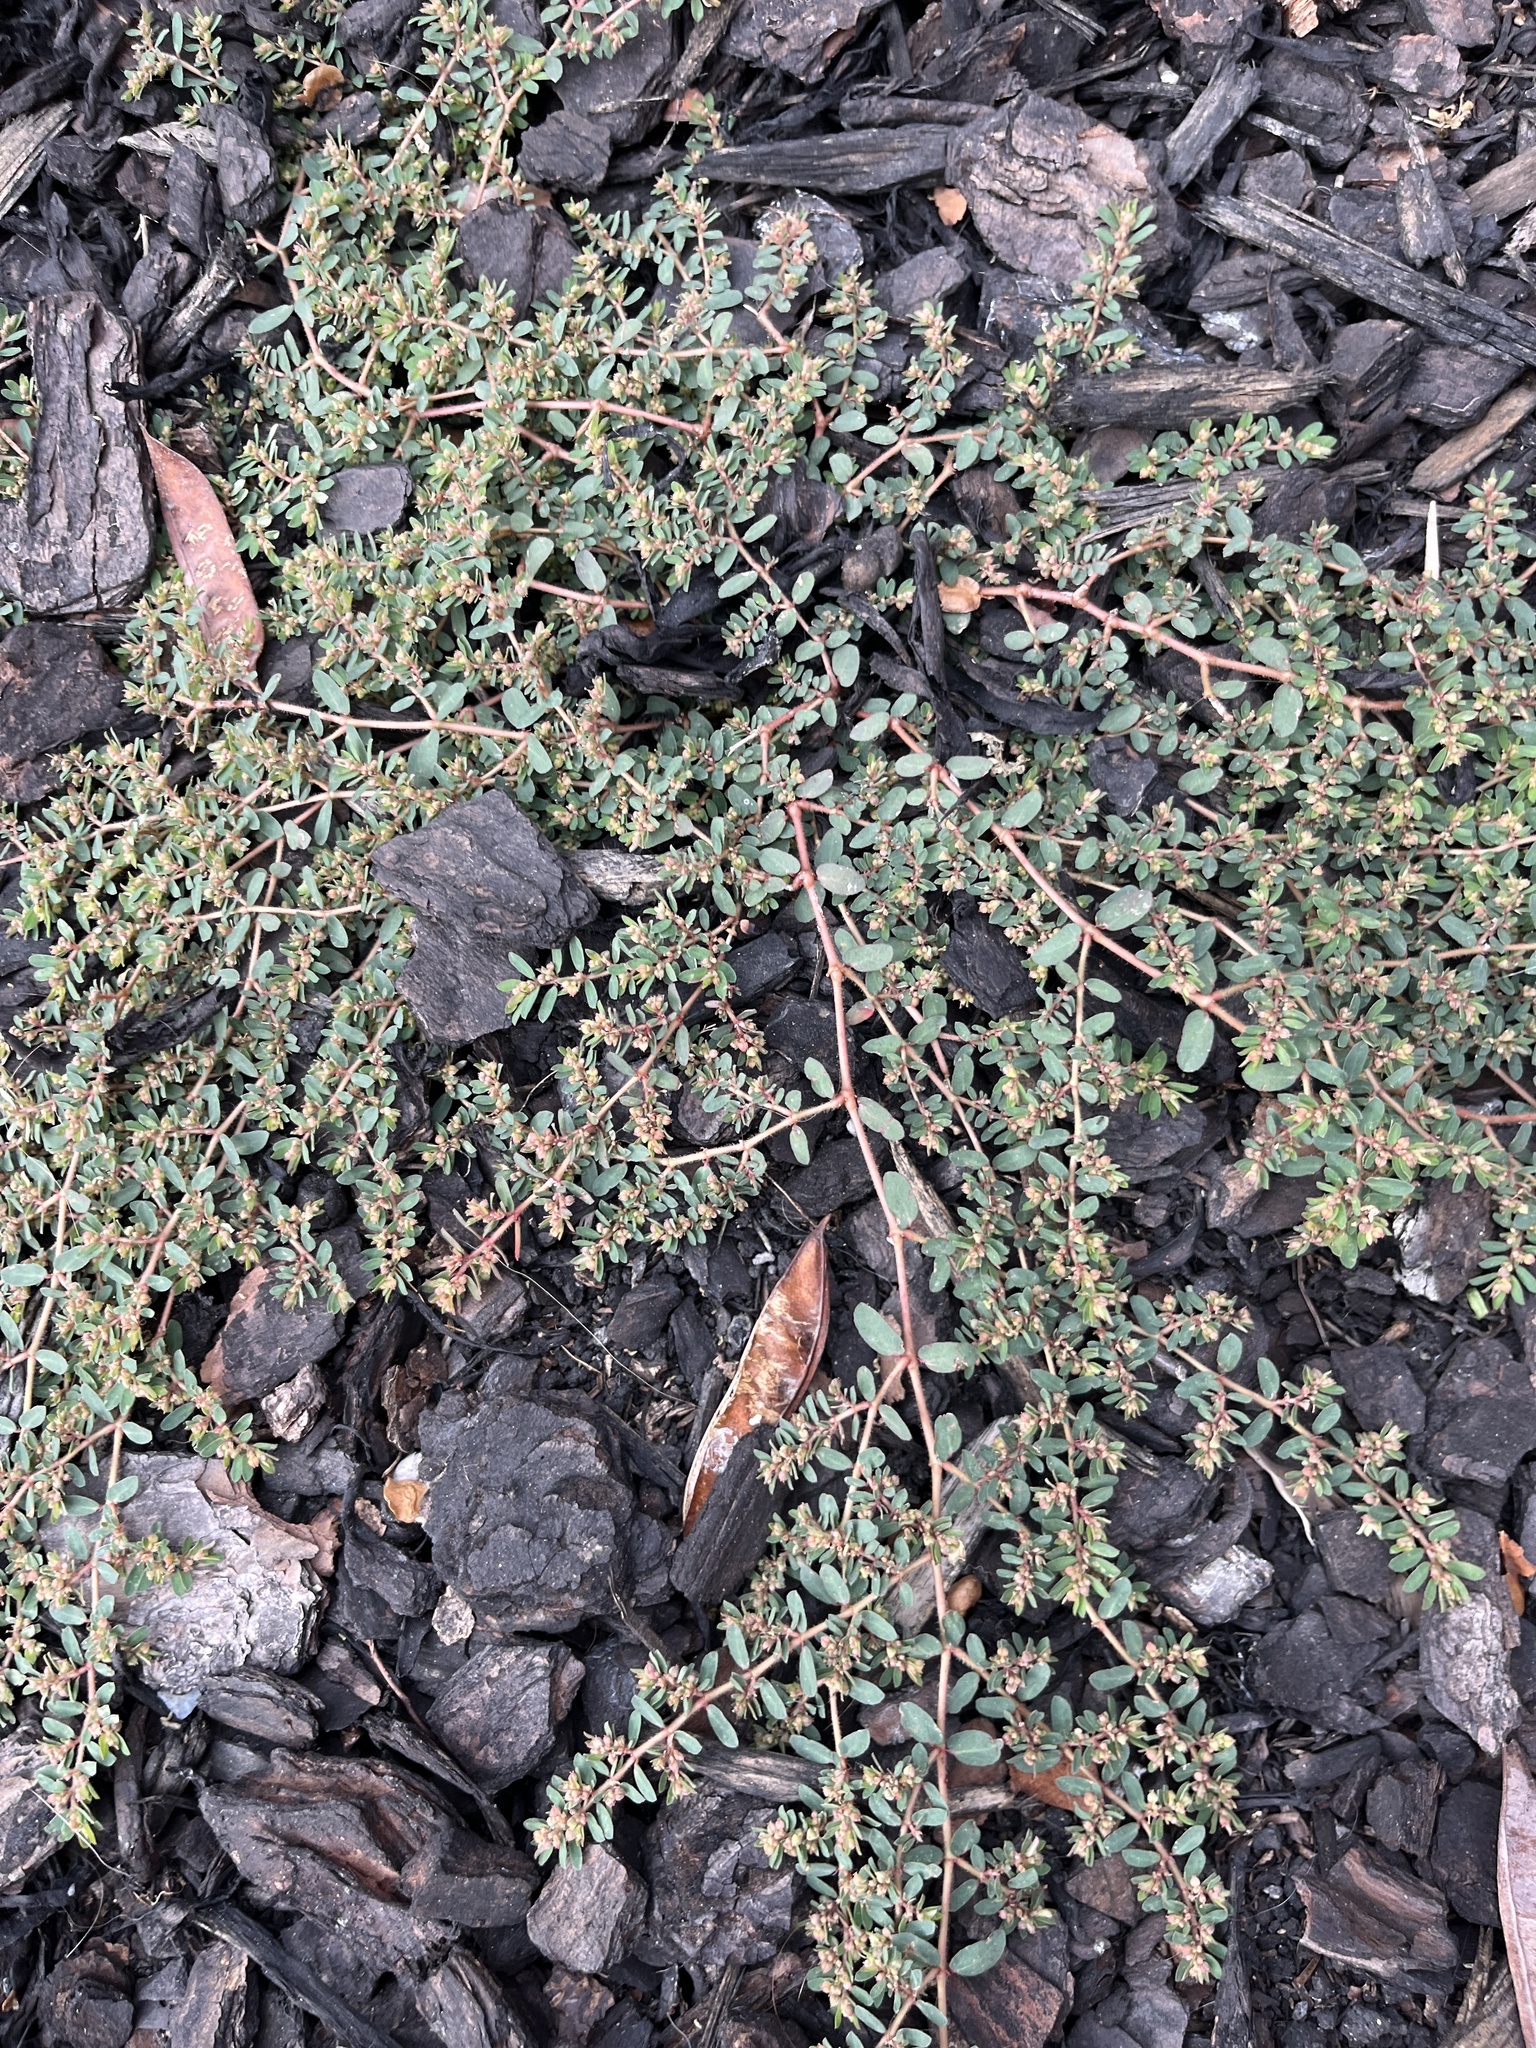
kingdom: Plantae
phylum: Tracheophyta
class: Magnoliopsida
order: Malpighiales
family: Euphorbiaceae
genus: Euphorbia
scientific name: Euphorbia maculata
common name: Spotted spurge
